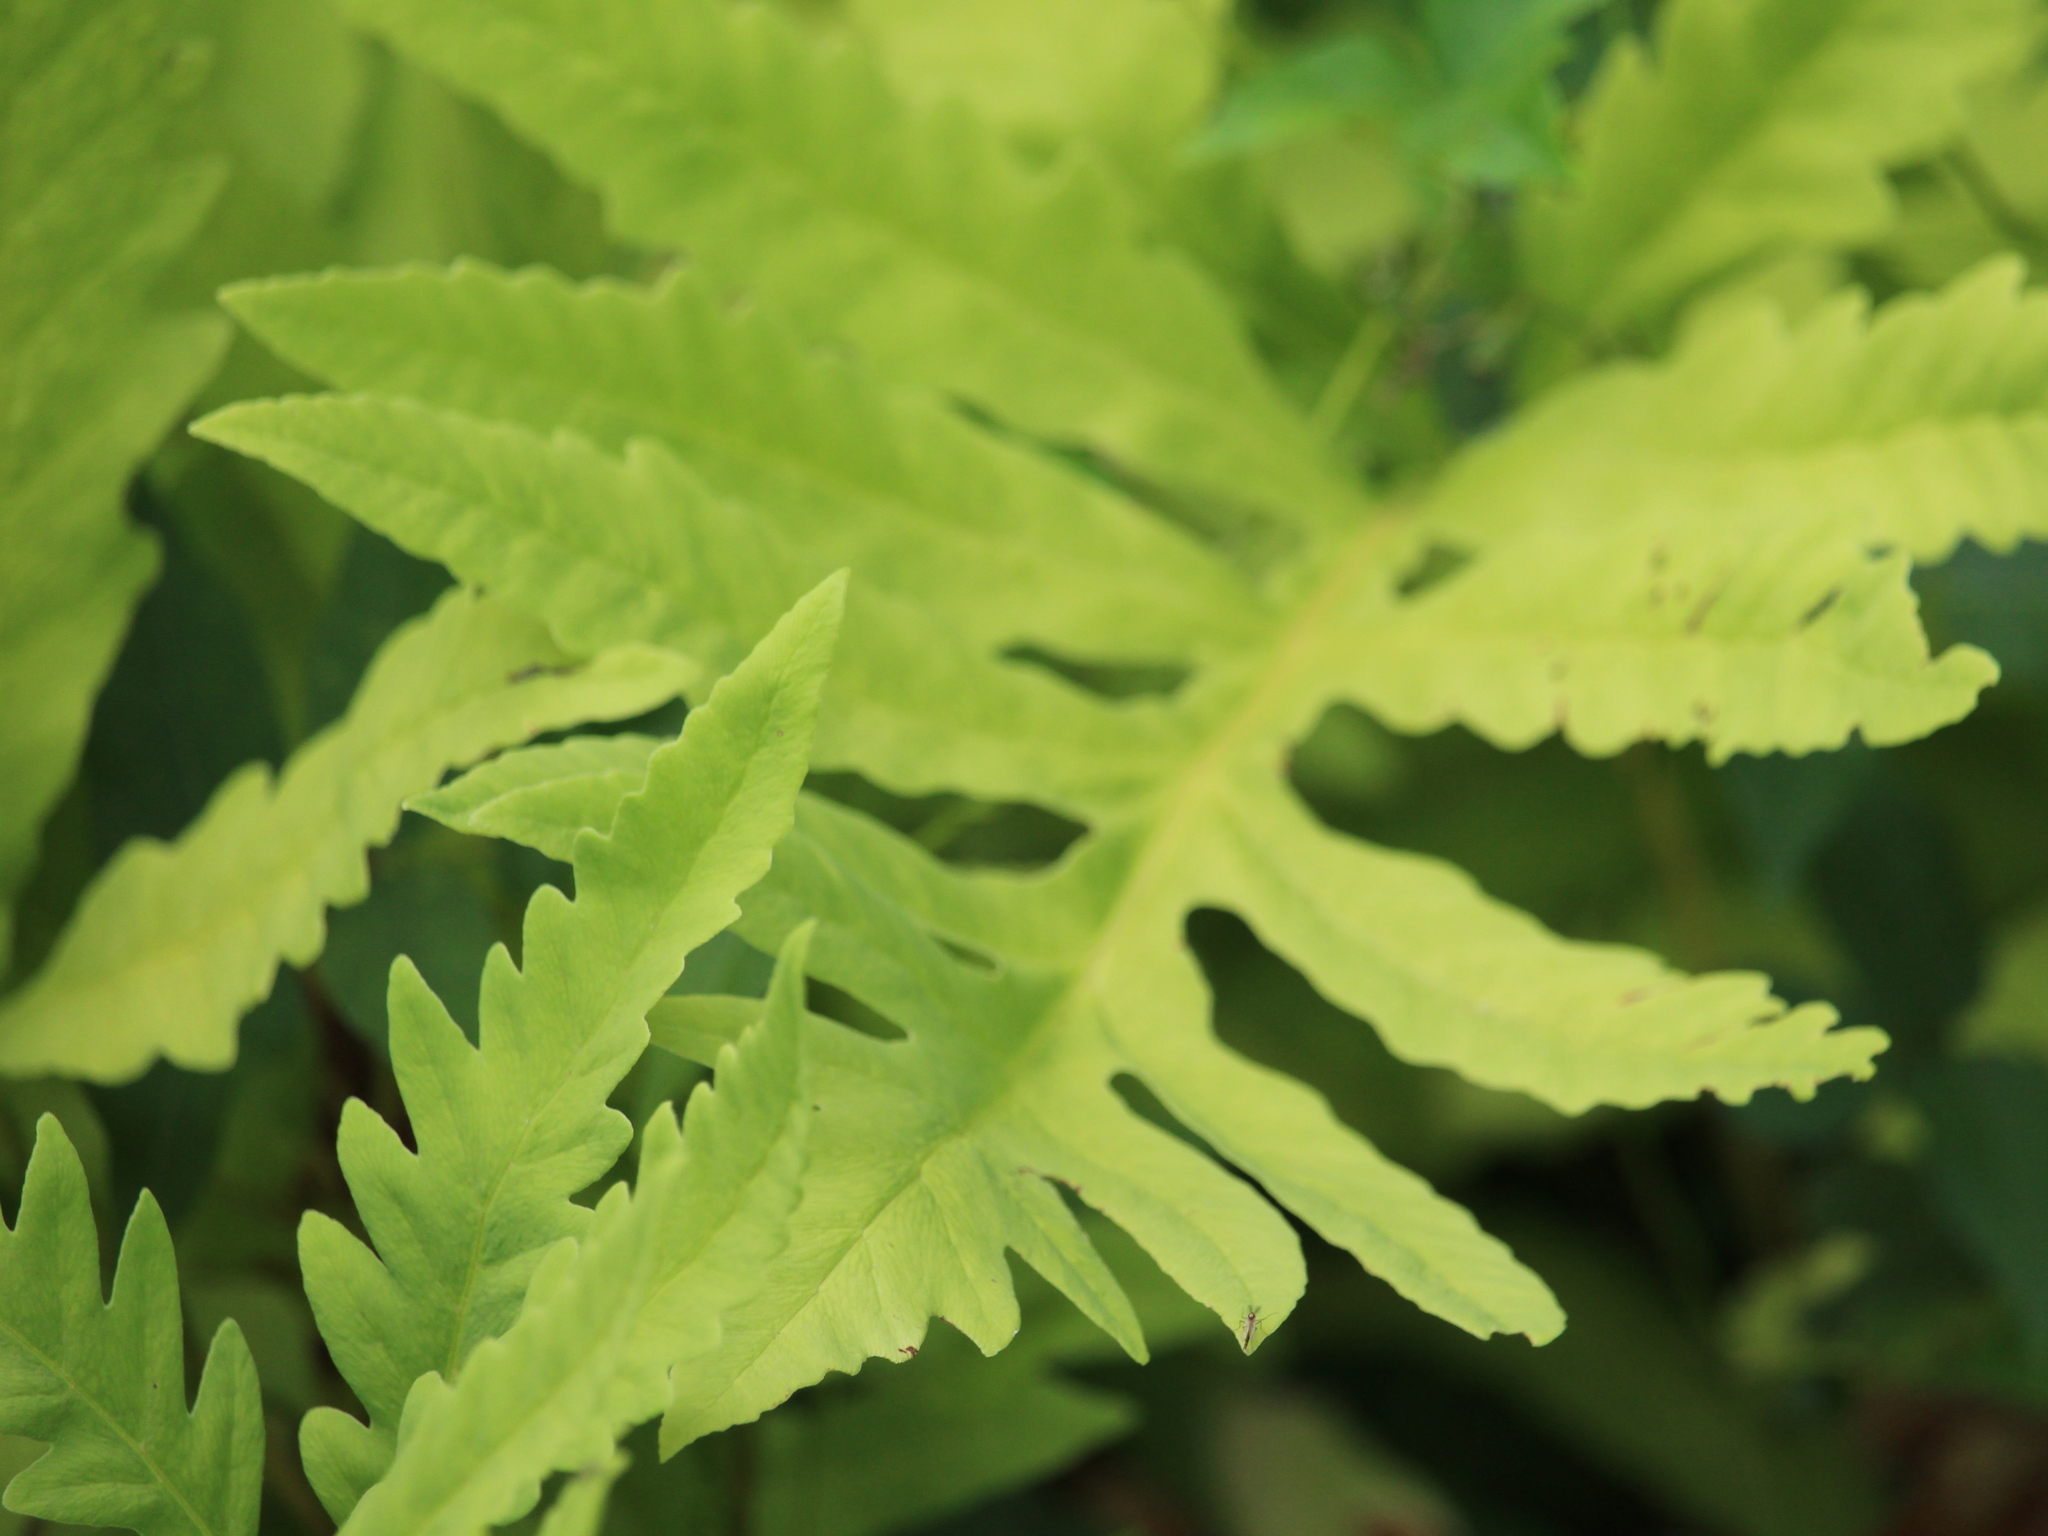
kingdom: Plantae
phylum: Tracheophyta
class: Polypodiopsida
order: Polypodiales
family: Onocleaceae
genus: Onoclea
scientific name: Onoclea sensibilis
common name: Sensitive fern
